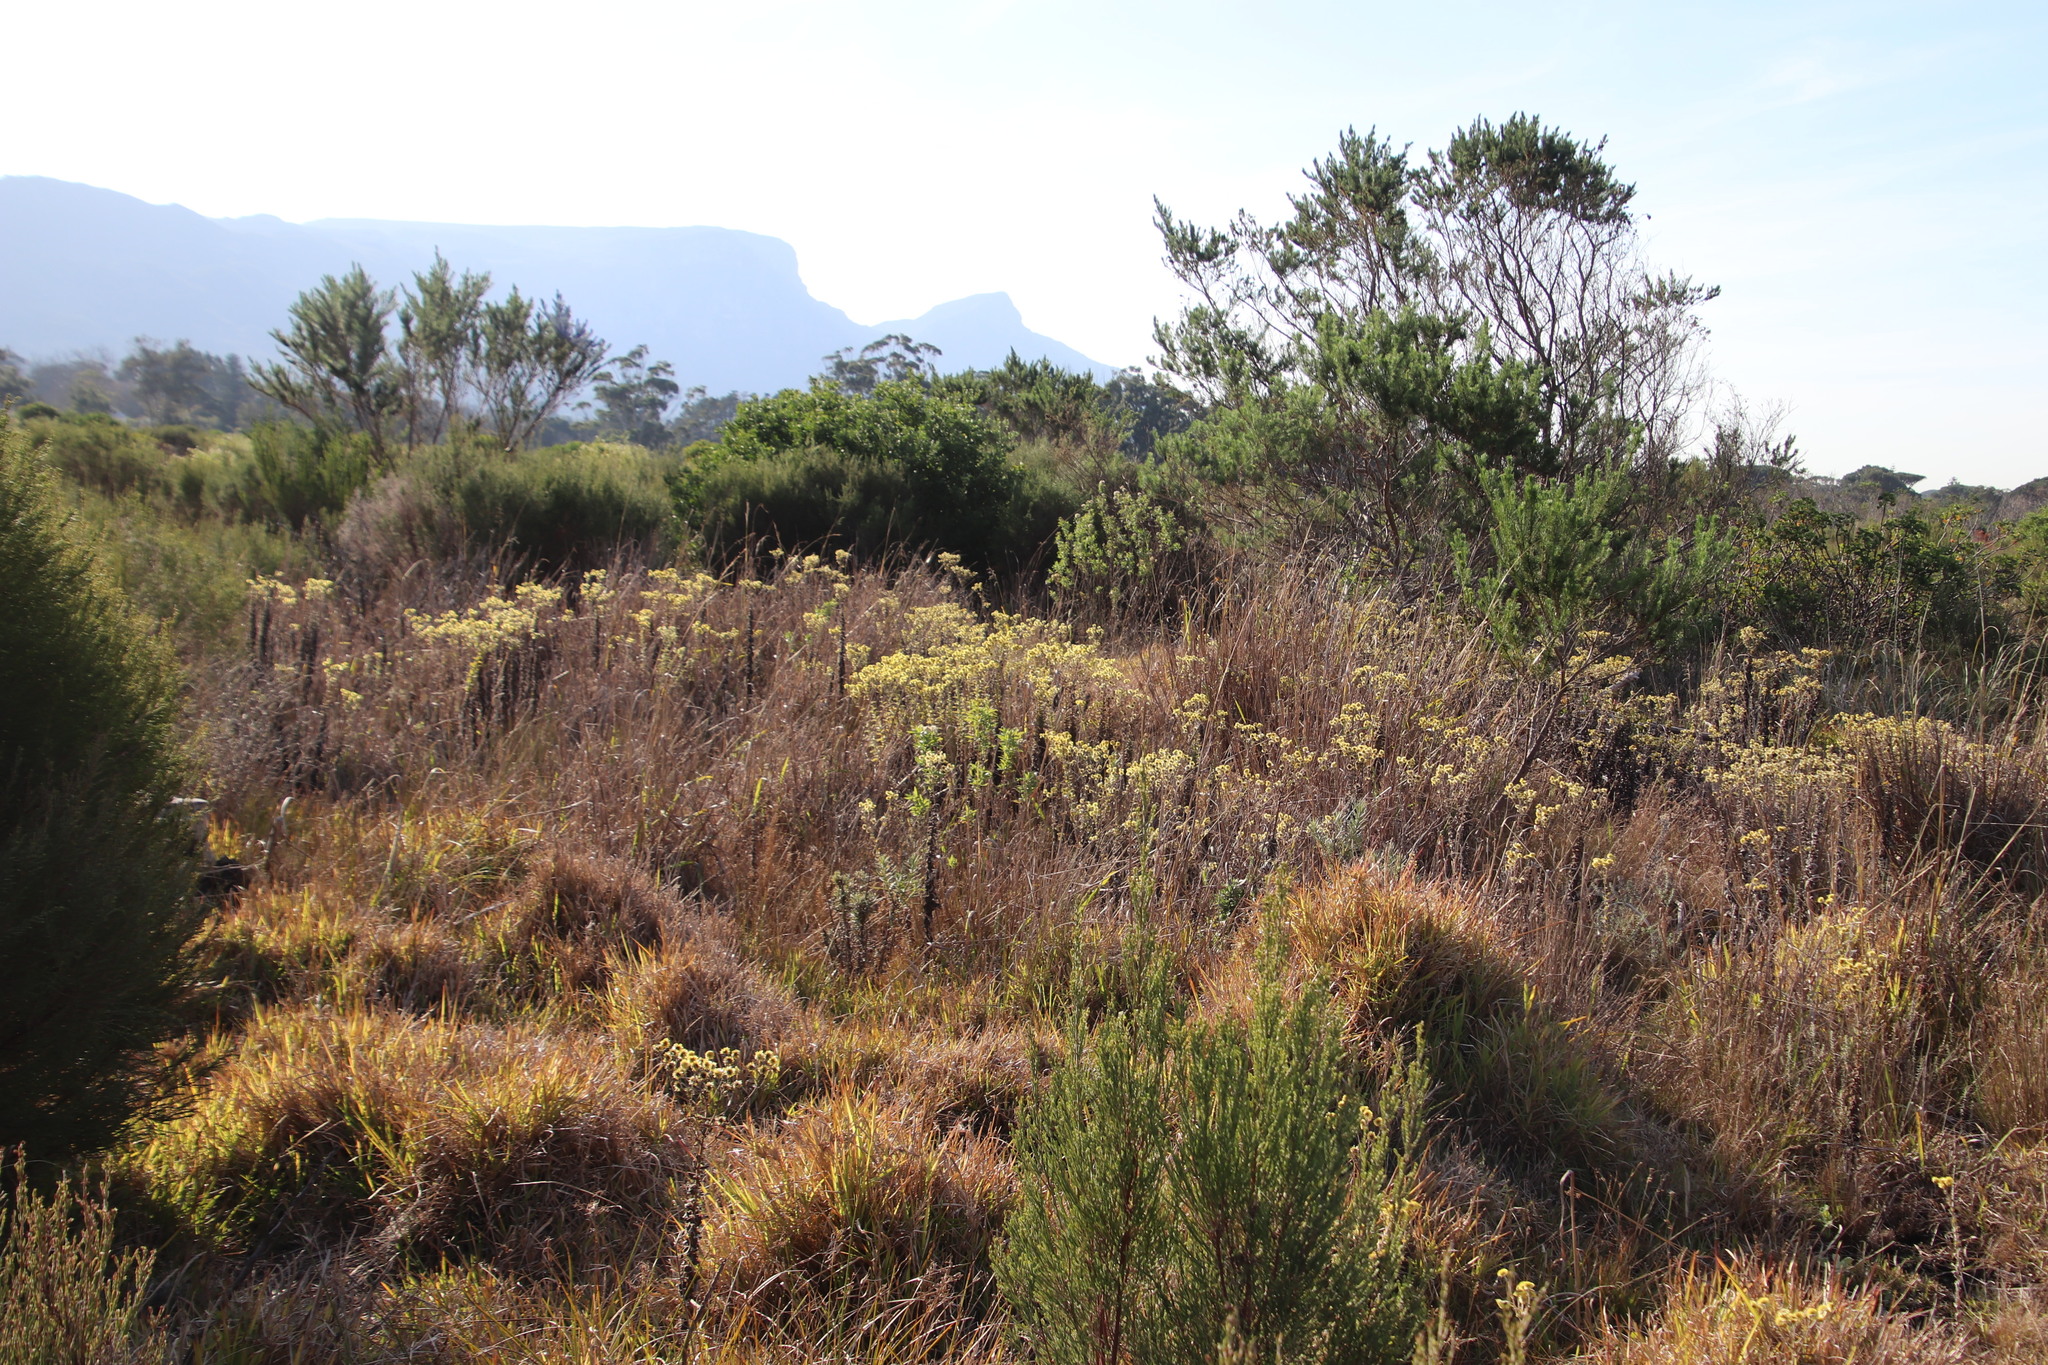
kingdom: Plantae
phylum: Tracheophyta
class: Magnoliopsida
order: Asterales
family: Asteraceae
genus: Helichrysum
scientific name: Helichrysum foetidum
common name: Stinking everlasting
